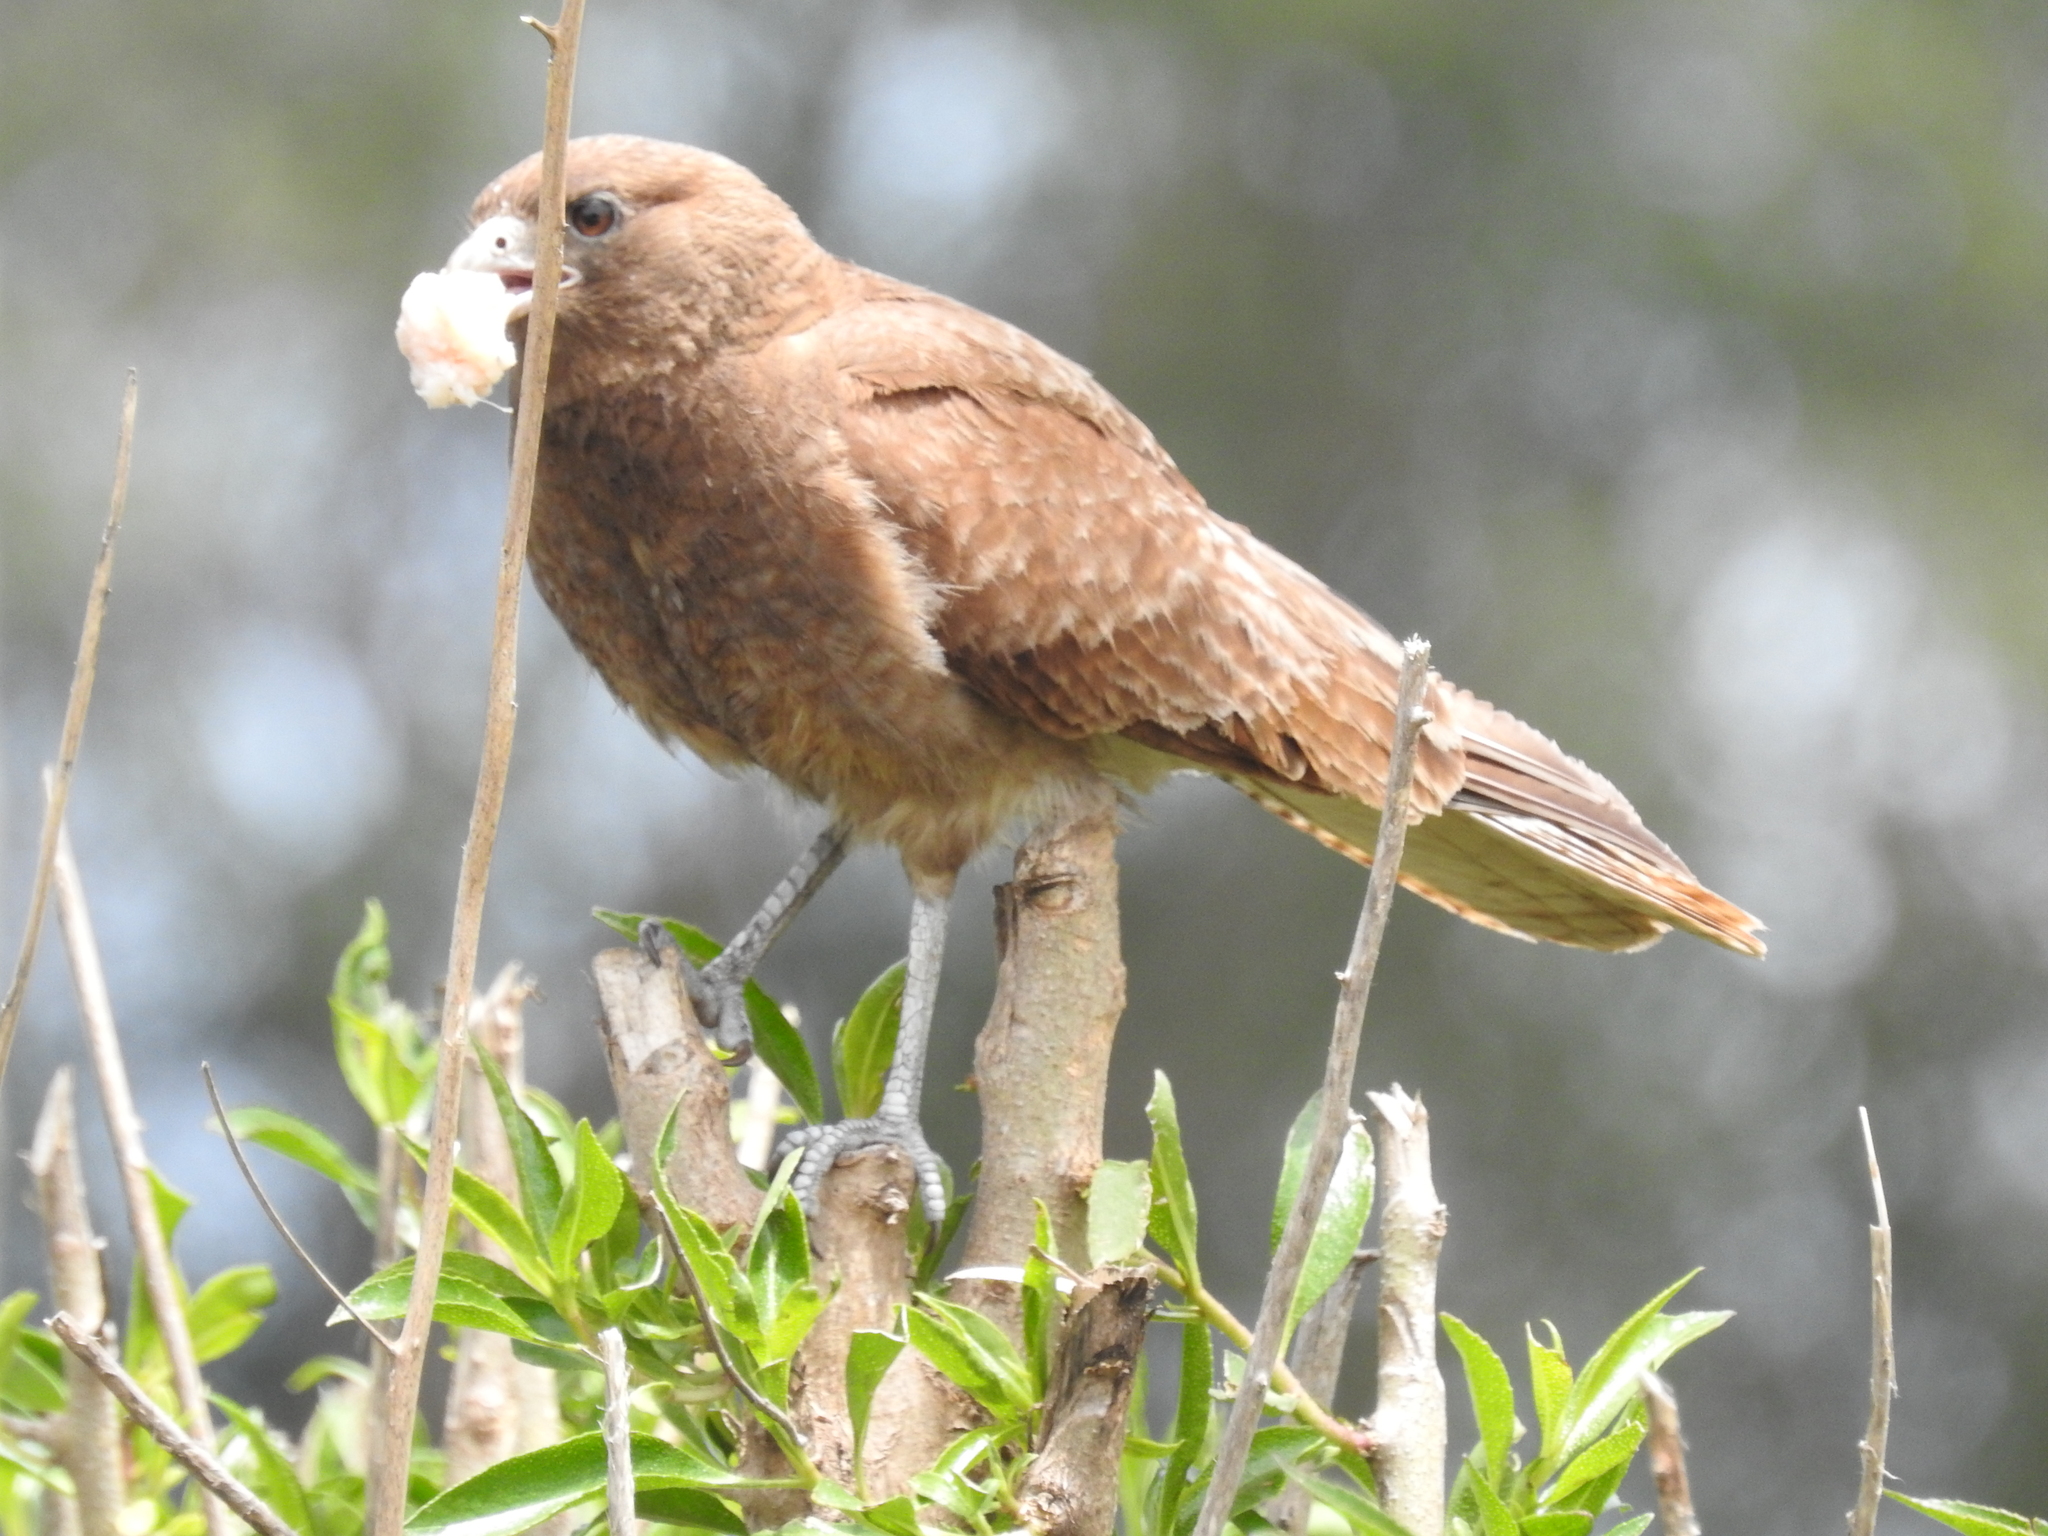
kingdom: Animalia
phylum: Chordata
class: Aves
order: Falconiformes
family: Falconidae
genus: Daptrius
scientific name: Daptrius
